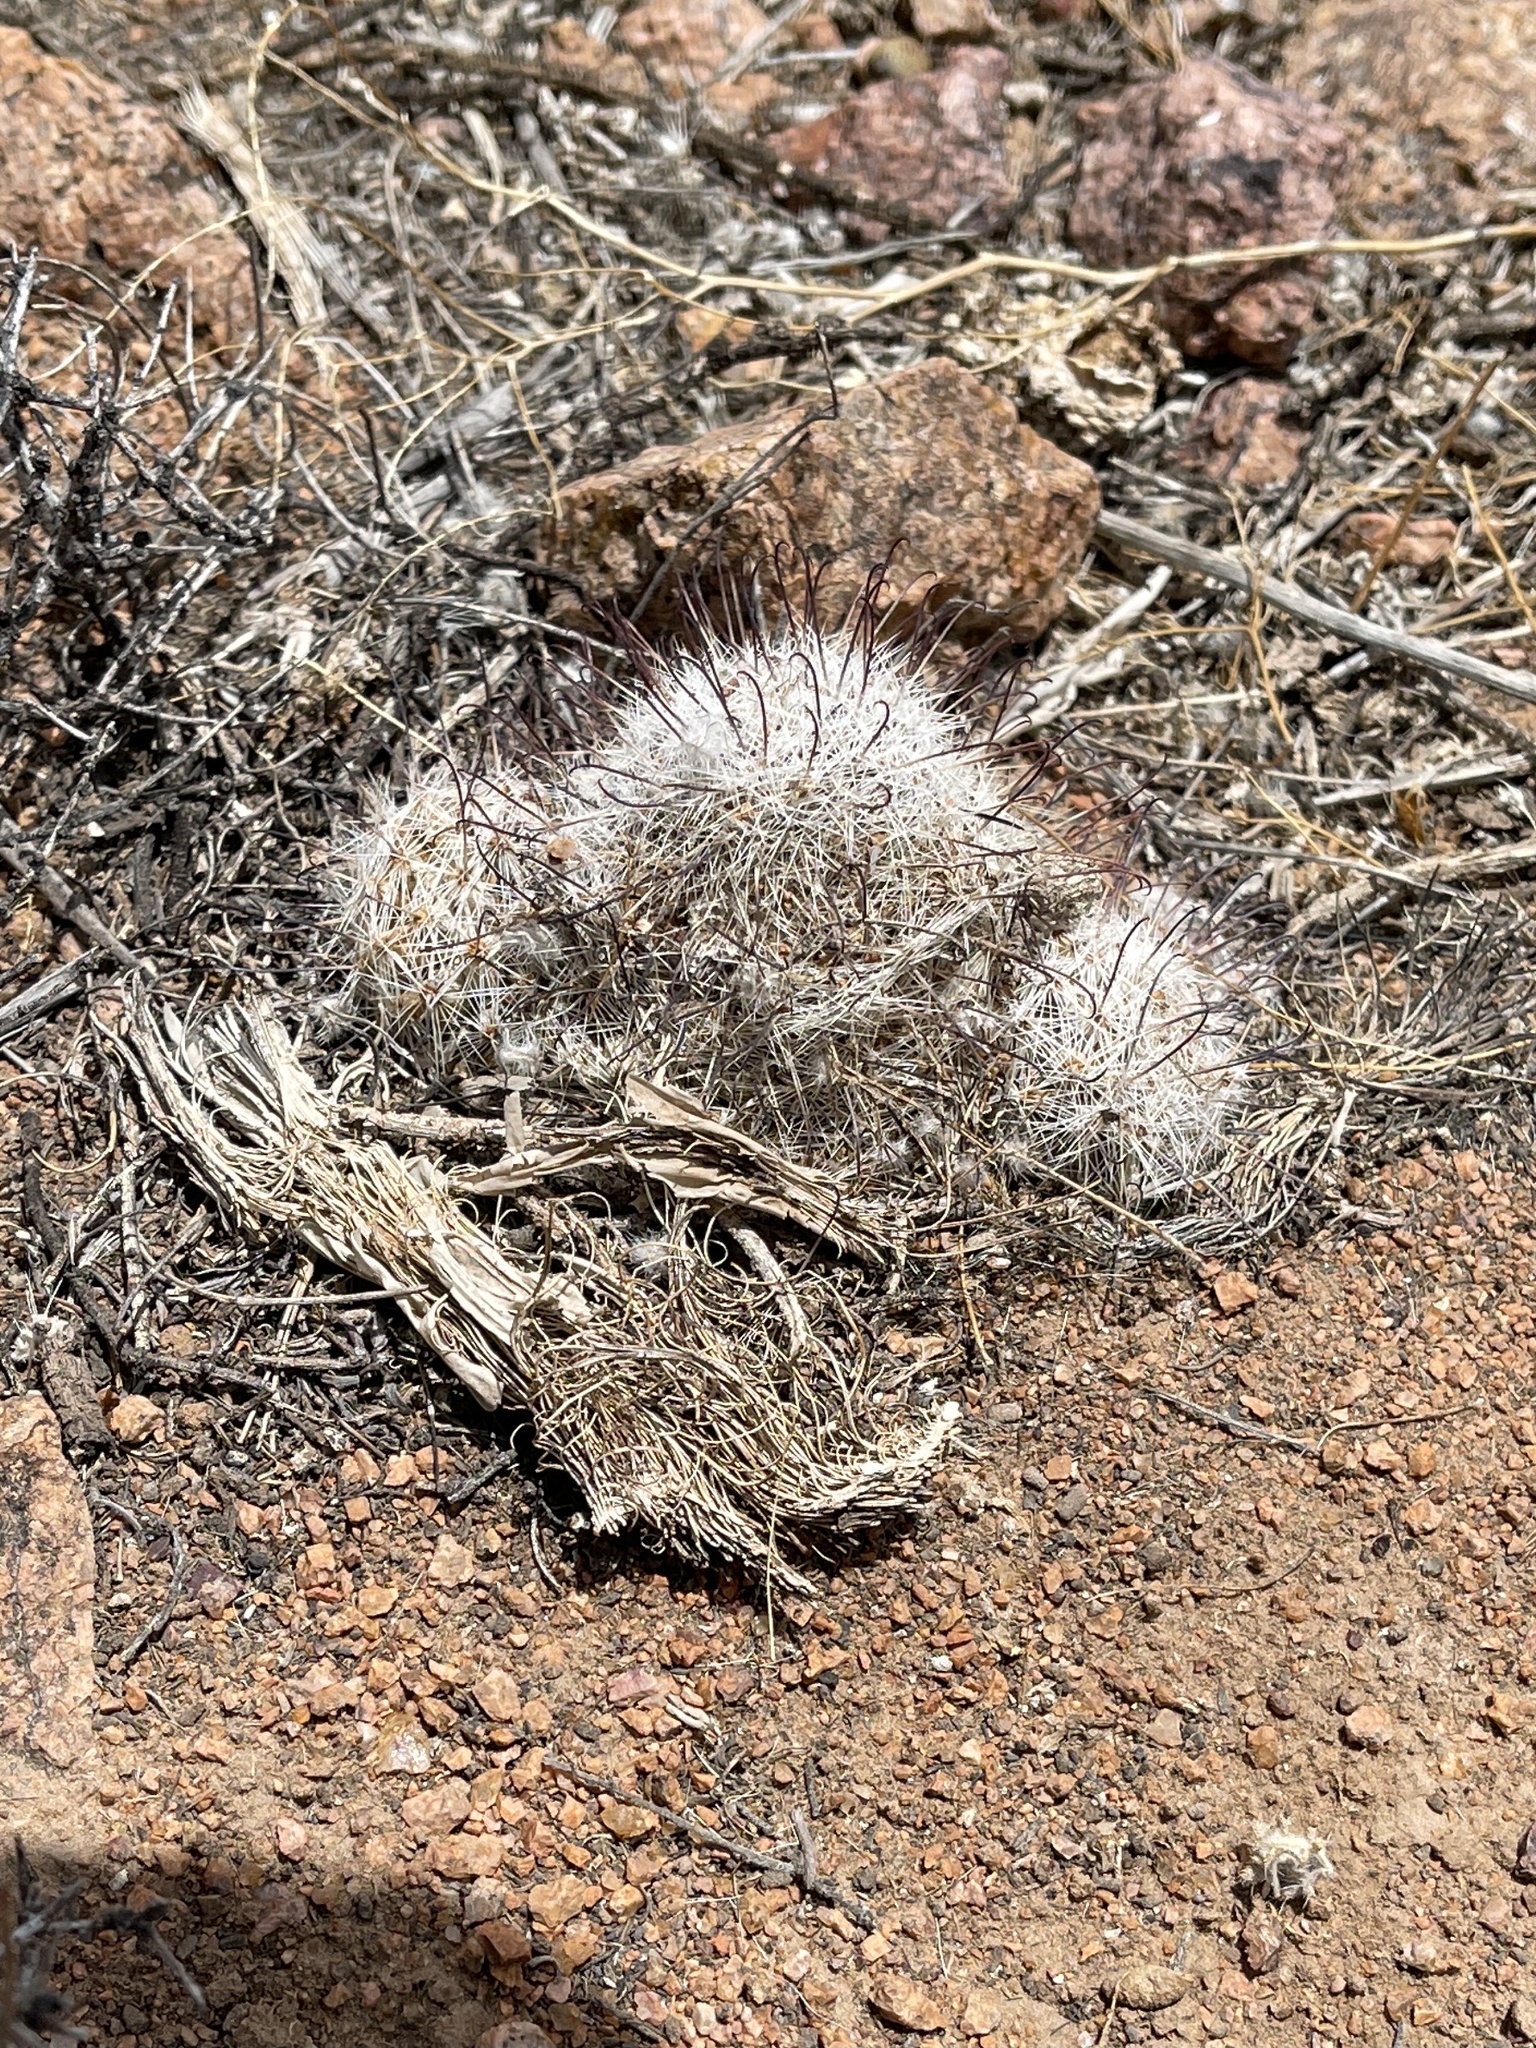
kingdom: Plantae
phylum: Tracheophyta
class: Magnoliopsida
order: Caryophyllales
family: Cactaceae
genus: Cochemiea
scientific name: Cochemiea grahamii
